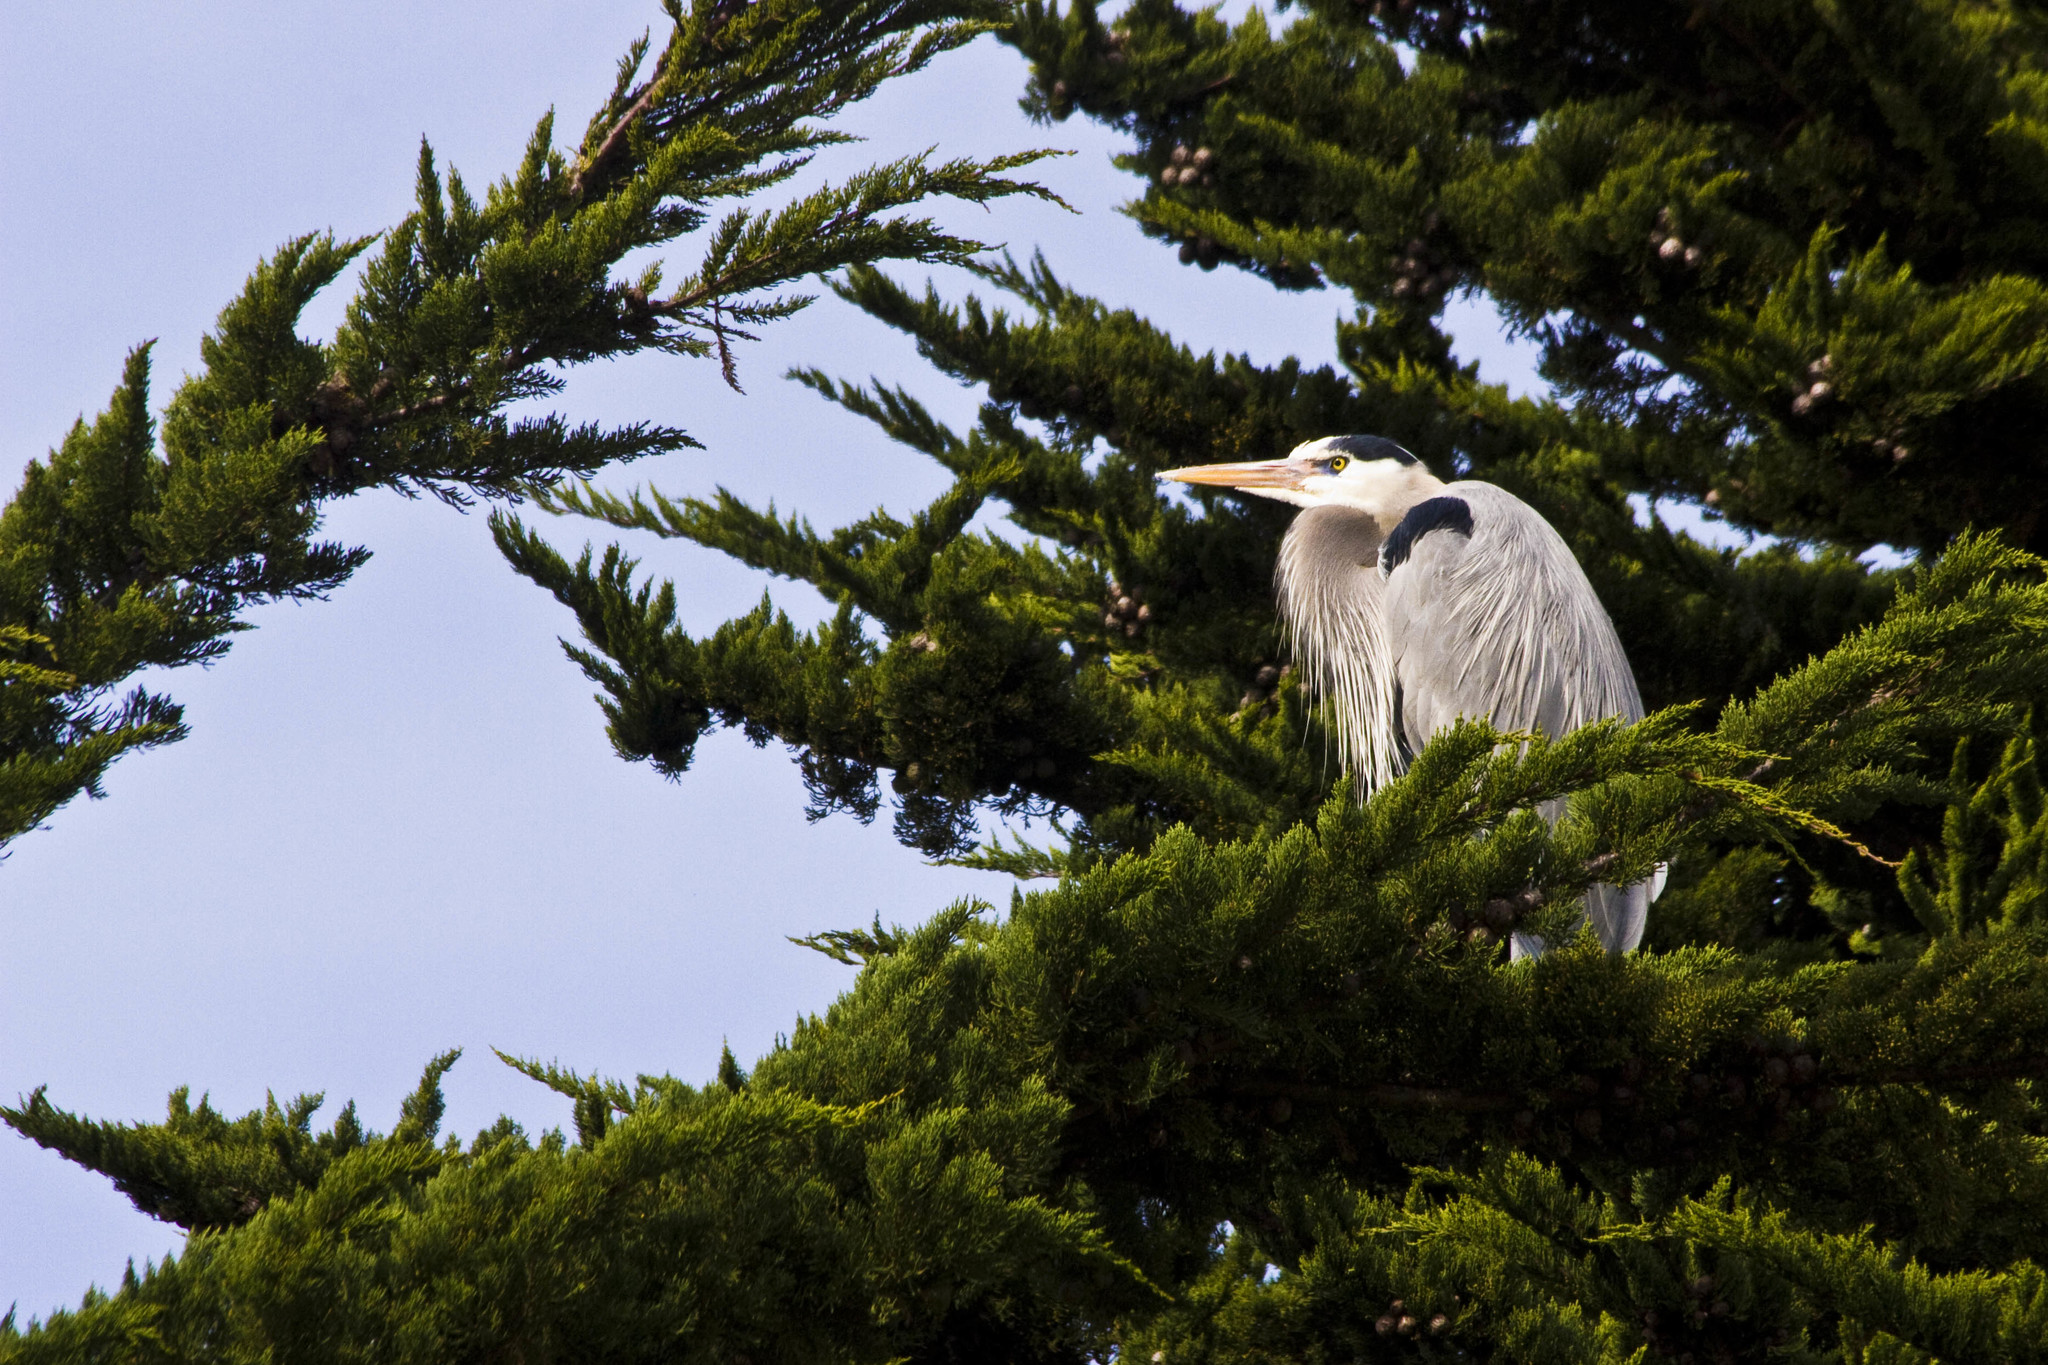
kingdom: Animalia
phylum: Chordata
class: Aves
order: Pelecaniformes
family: Ardeidae
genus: Ardea
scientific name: Ardea herodias
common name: Great blue heron
